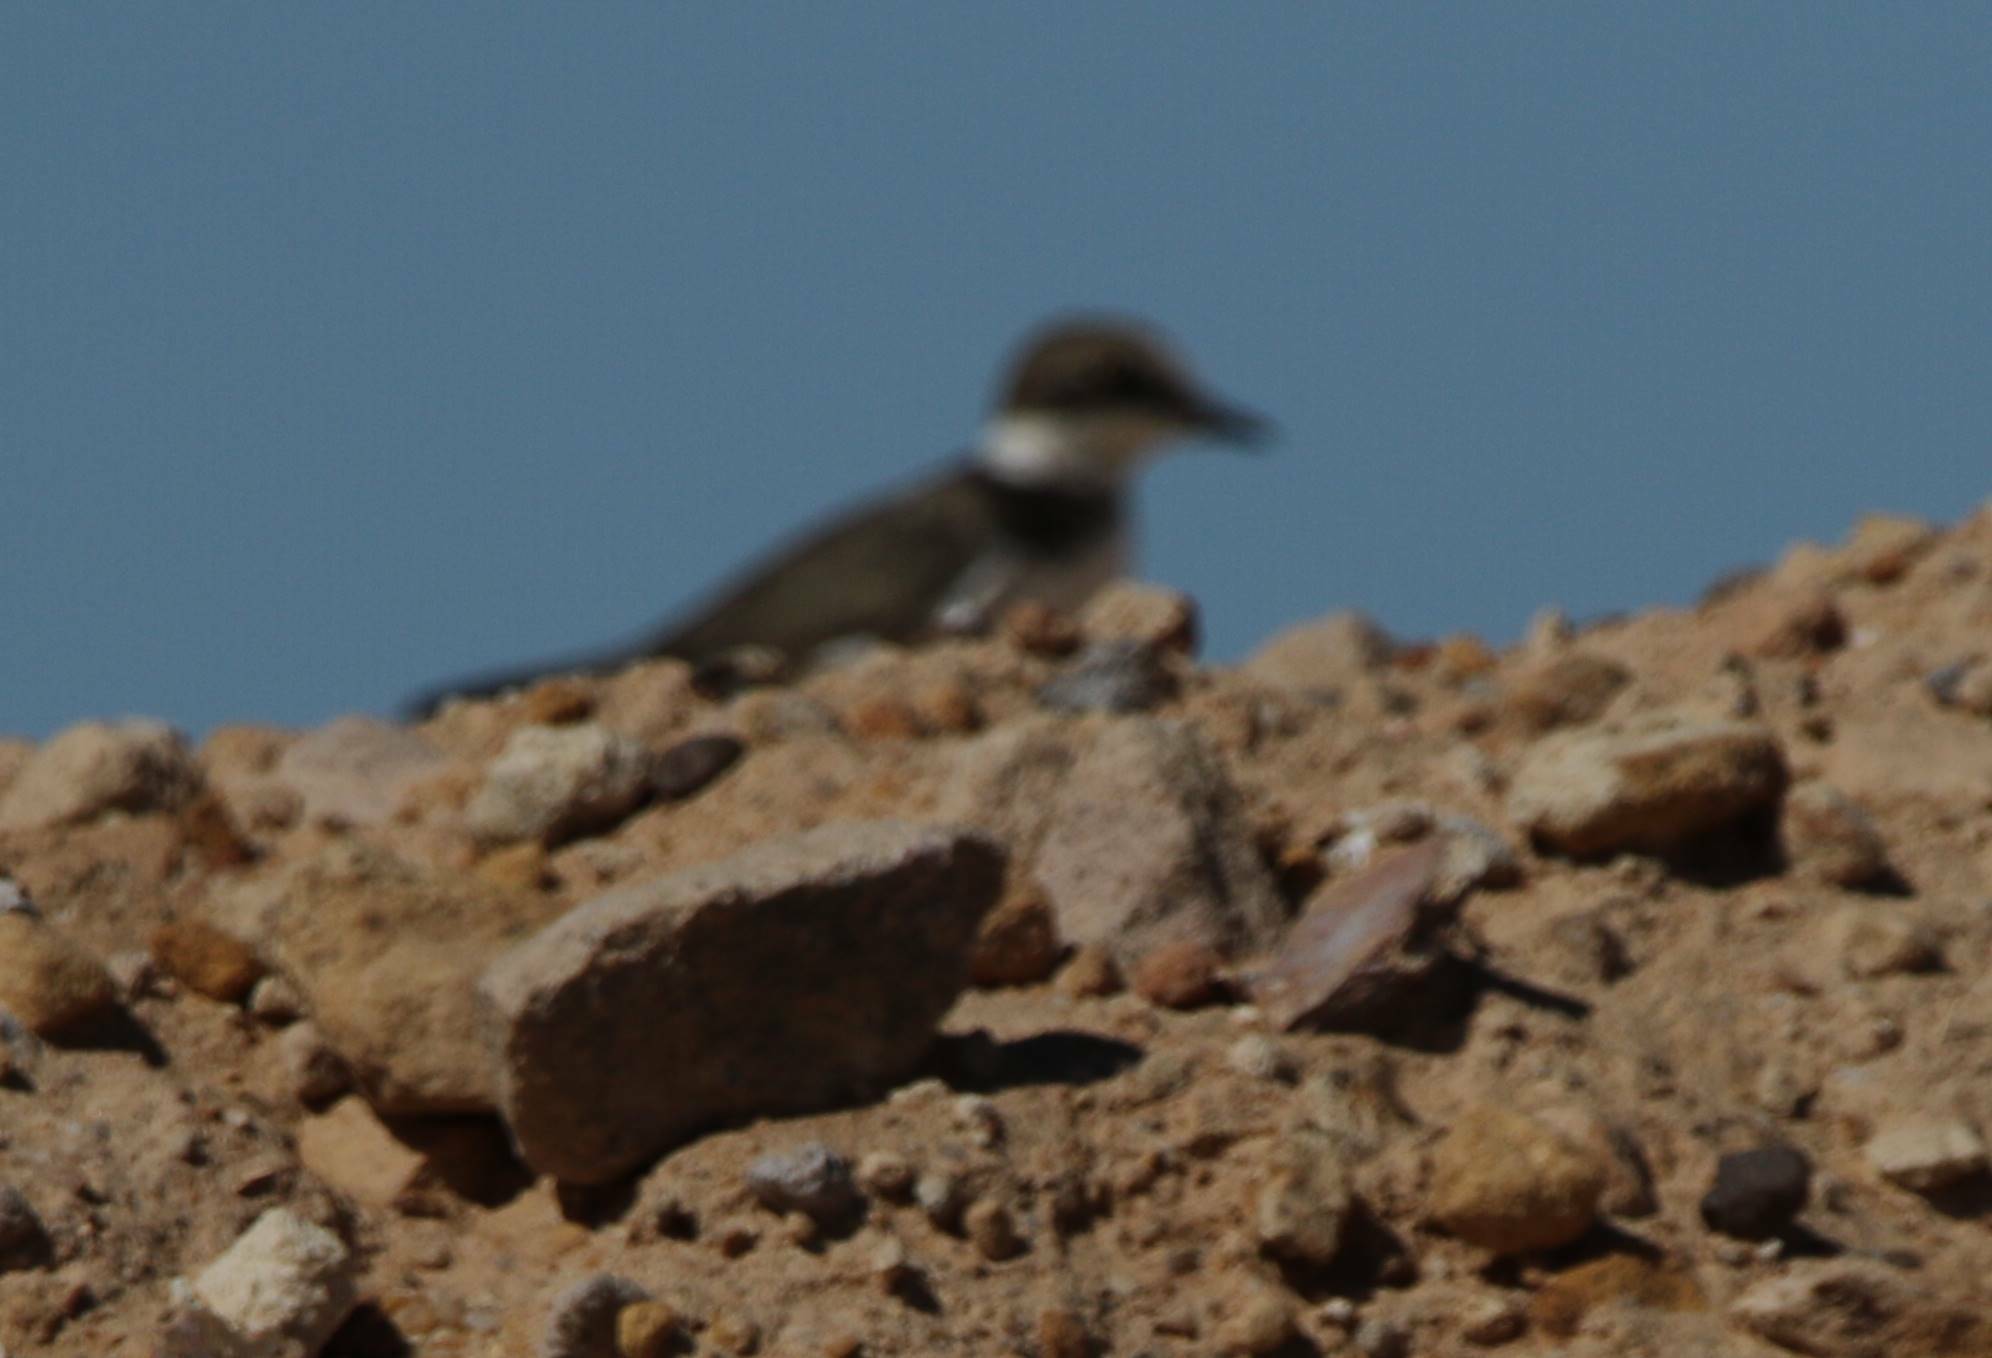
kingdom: Animalia
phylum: Chordata
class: Aves
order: Charadriiformes
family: Charadriidae
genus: Charadrius
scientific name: Charadrius dubius
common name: Little ringed plover
